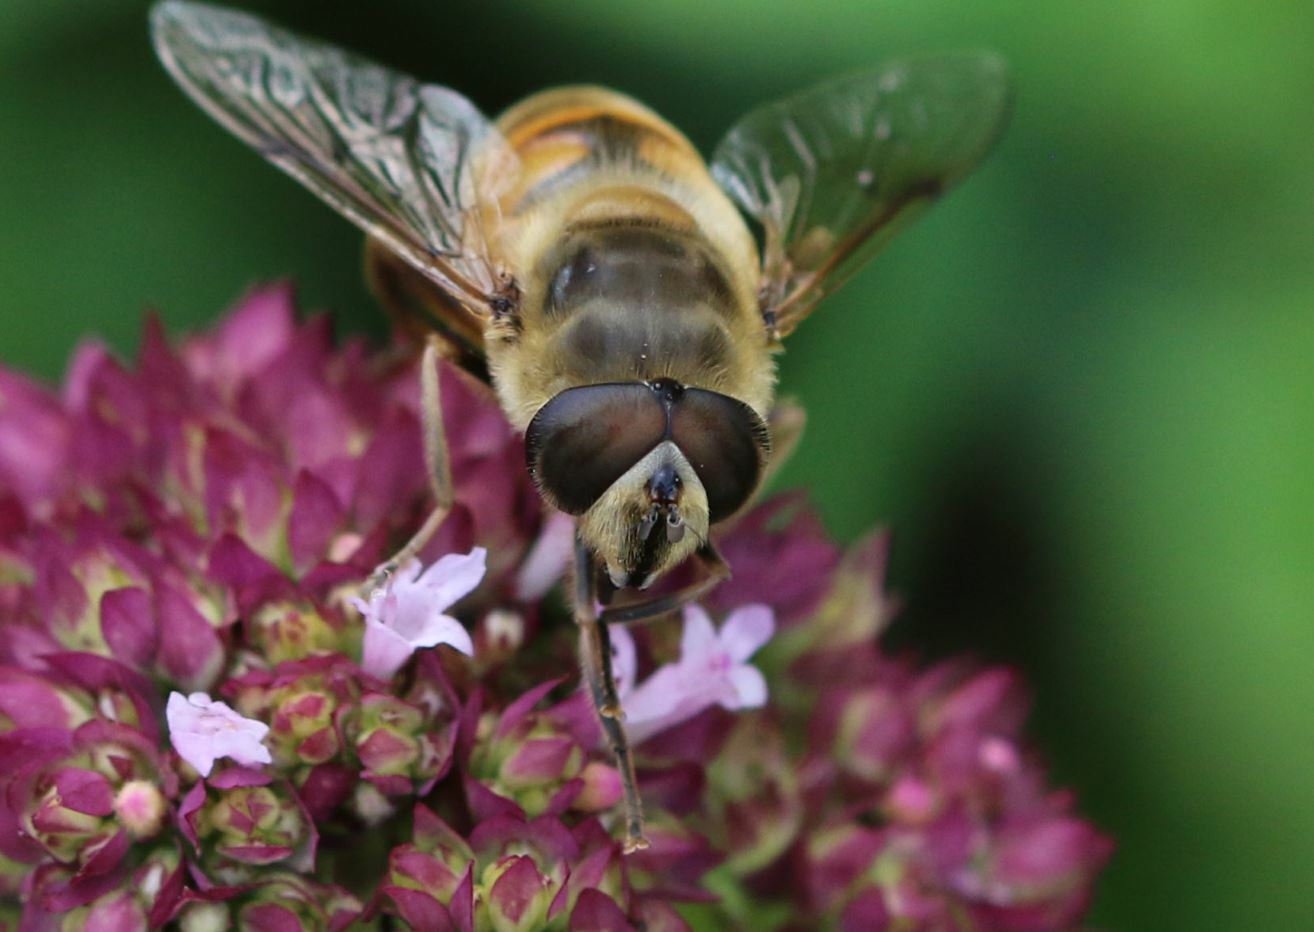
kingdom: Animalia
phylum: Arthropoda
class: Insecta
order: Diptera
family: Syrphidae
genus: Eristalis
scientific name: Eristalis tenax
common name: Drone fly
